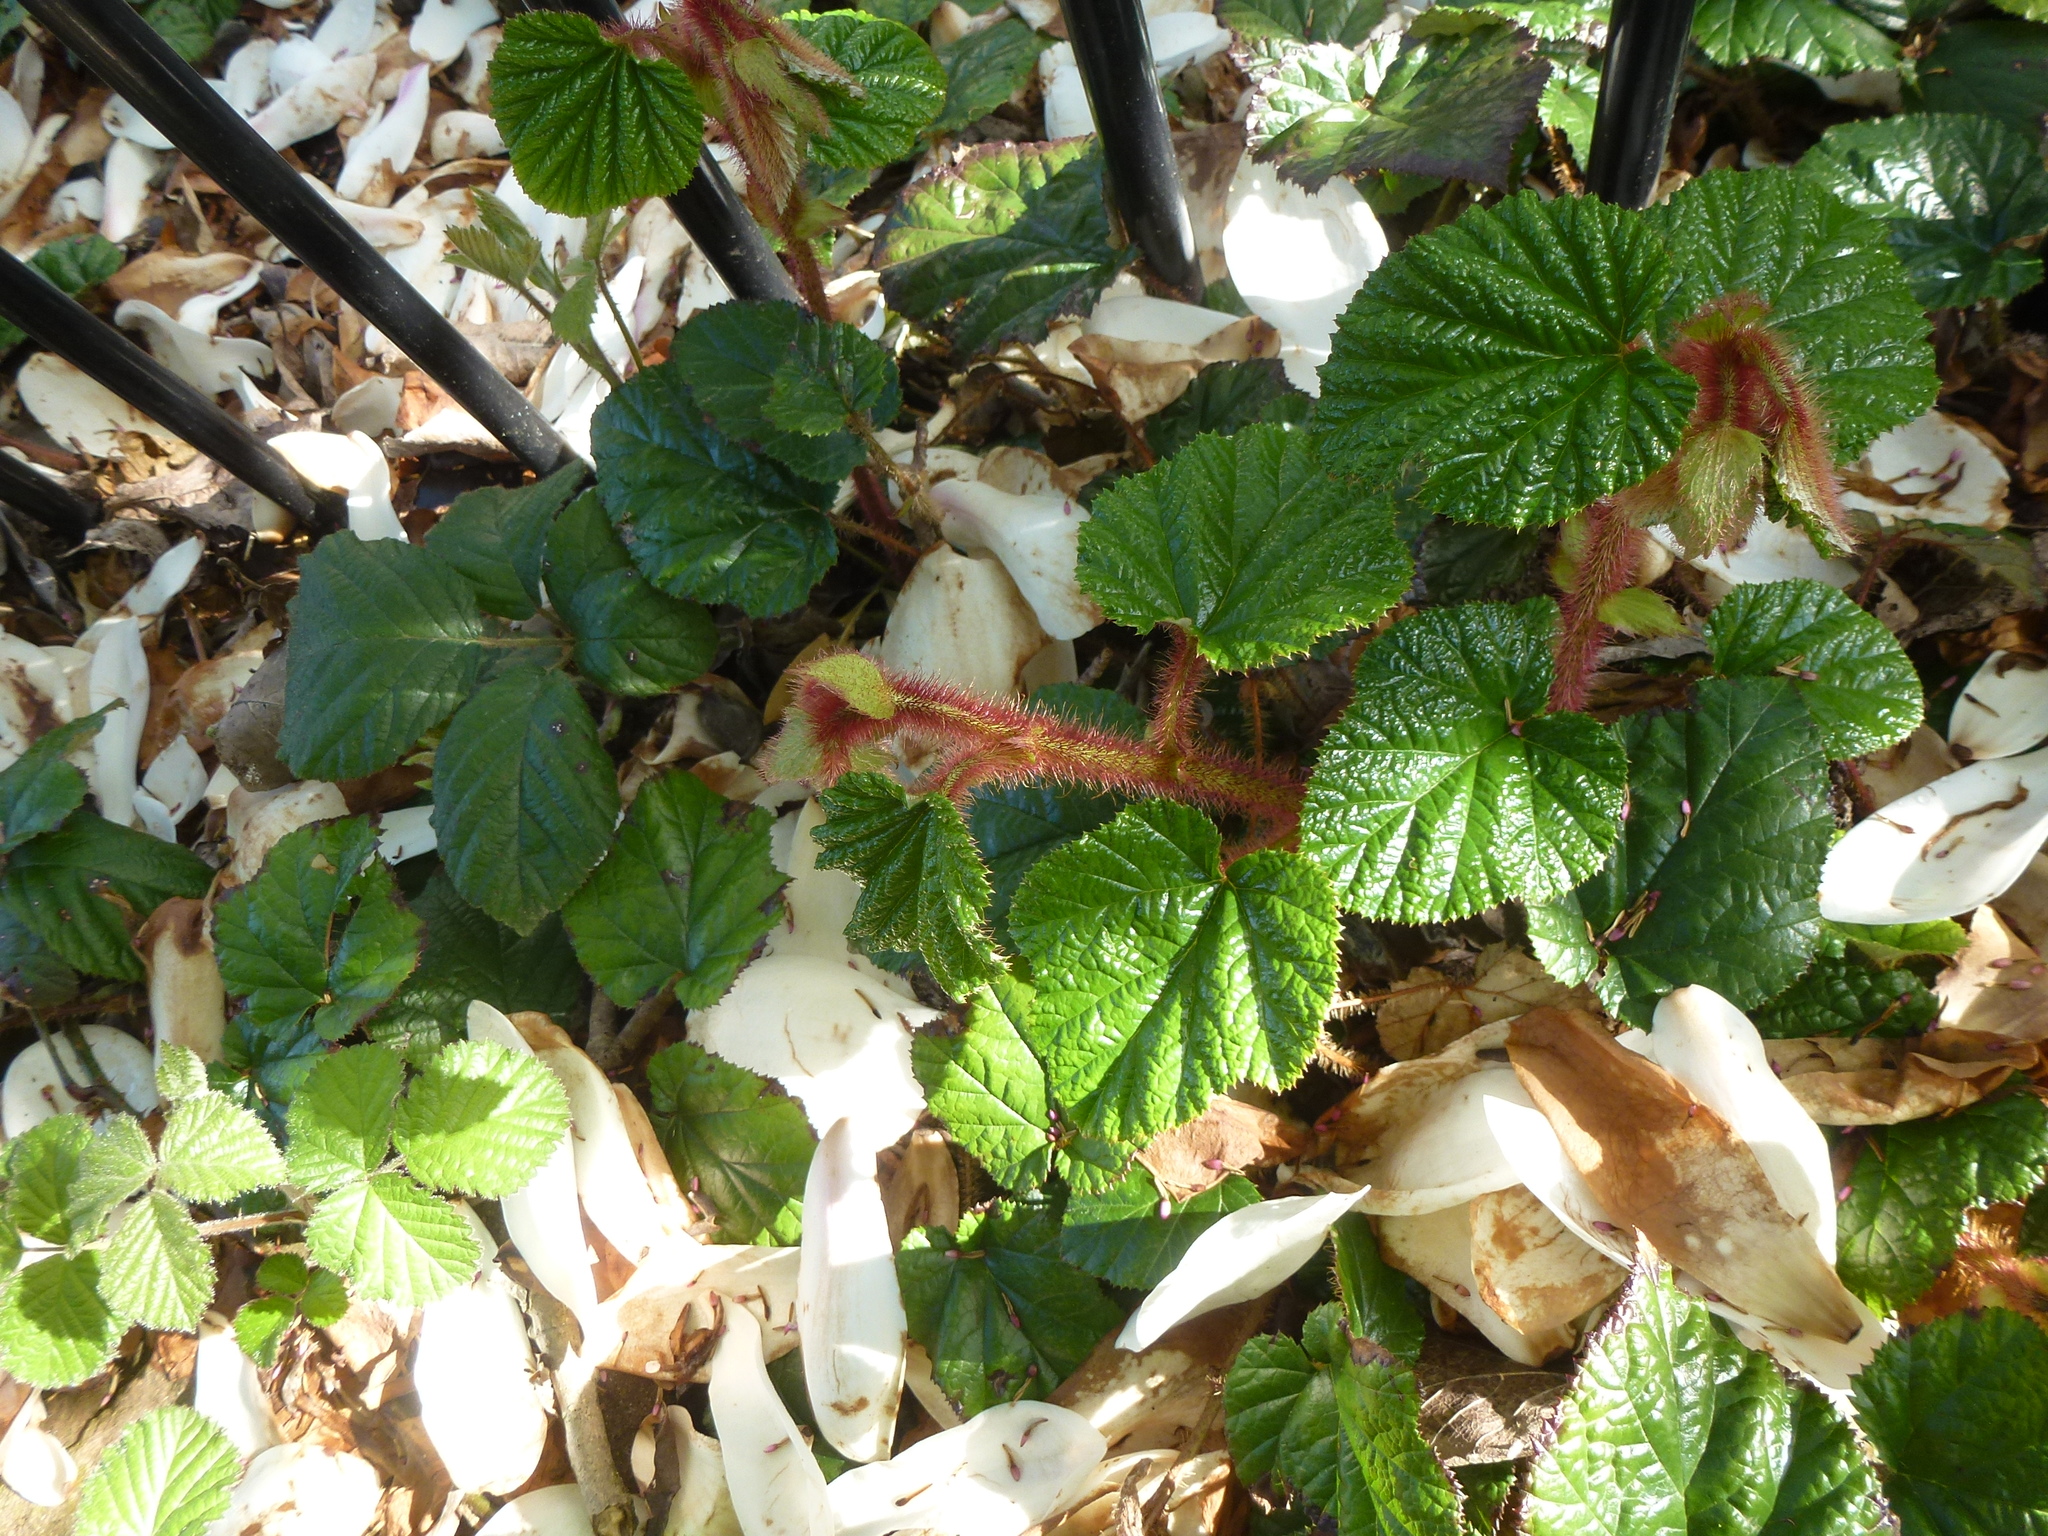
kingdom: Plantae
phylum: Tracheophyta
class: Magnoliopsida
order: Rosales
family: Rosaceae
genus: Rubus
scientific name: Rubus tricolor
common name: Chinese bramble
